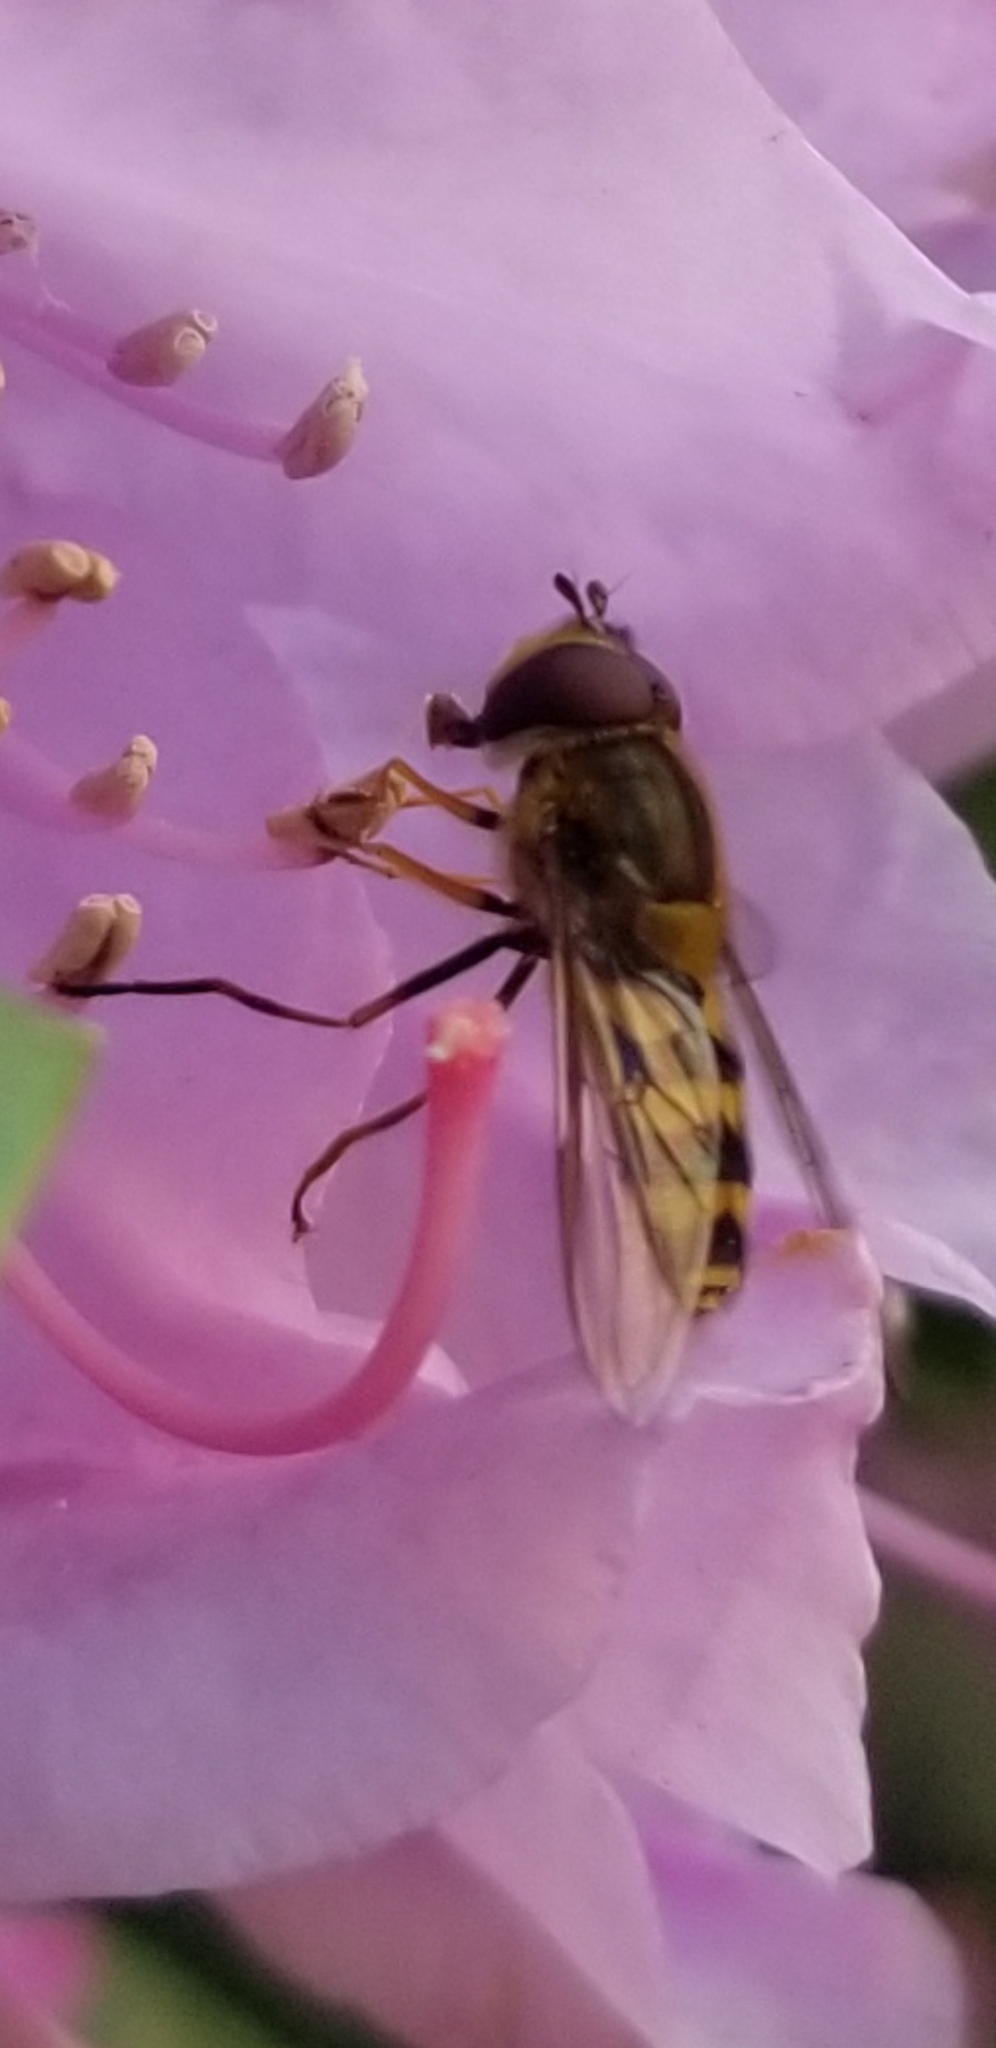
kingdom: Animalia
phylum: Arthropoda
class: Insecta
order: Diptera
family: Syrphidae
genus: Syrphus
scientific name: Syrphus
